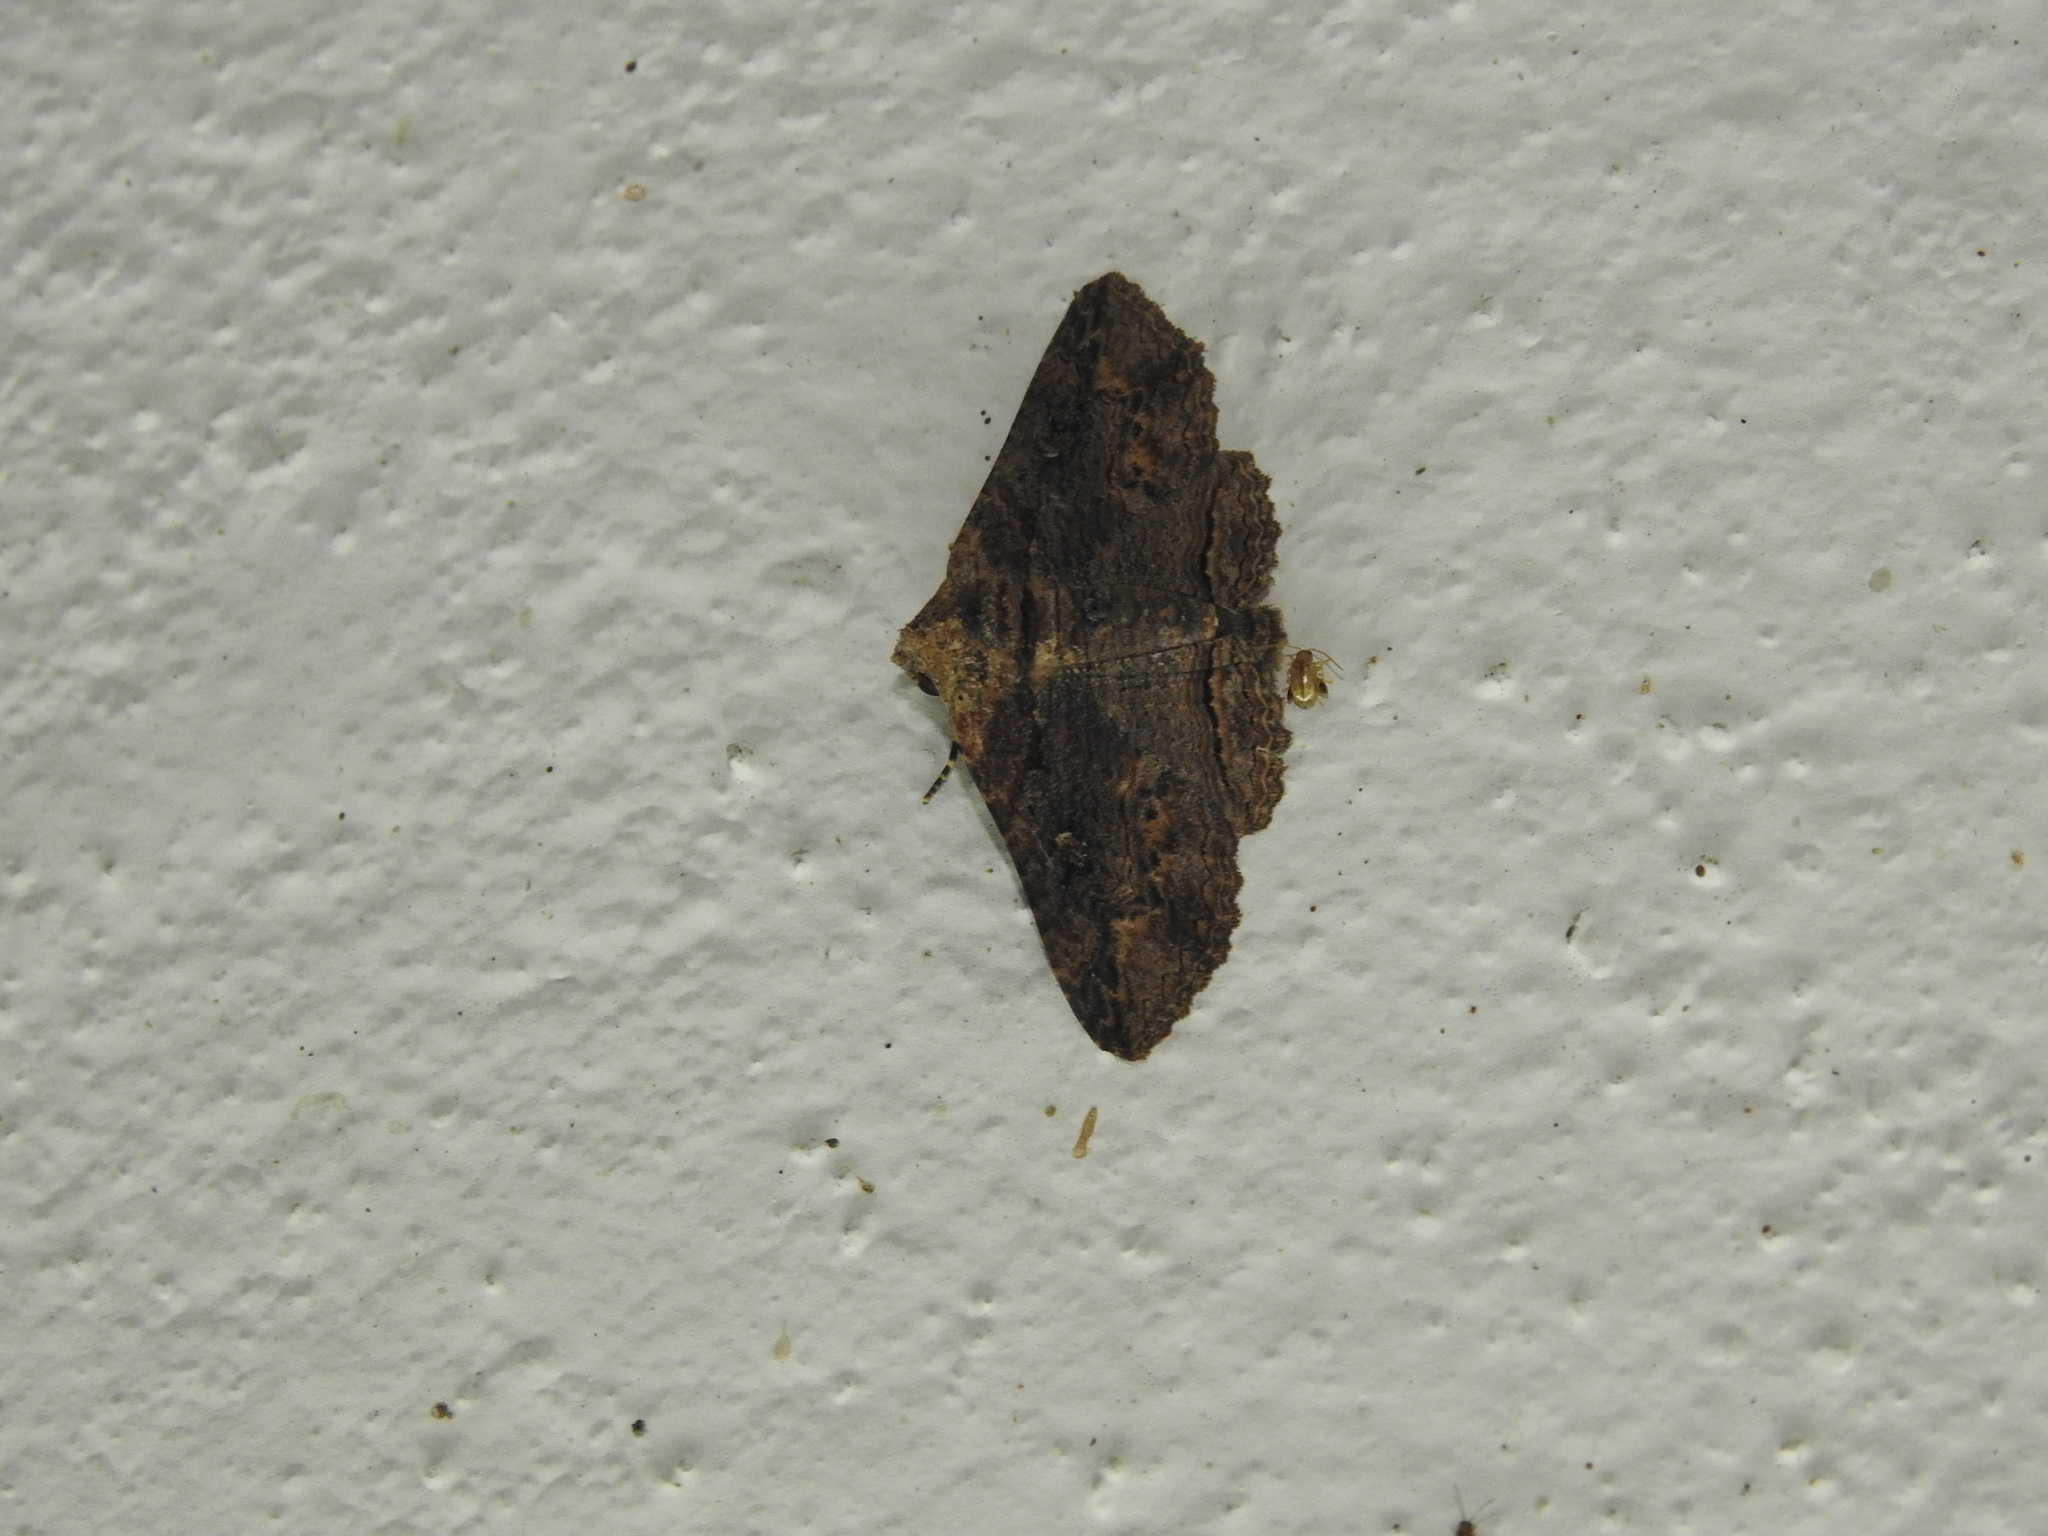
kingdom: Animalia
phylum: Arthropoda
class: Insecta
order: Lepidoptera
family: Erebidae
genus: Pericyma
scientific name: Pericyma cruegeri
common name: Poinciana looper
